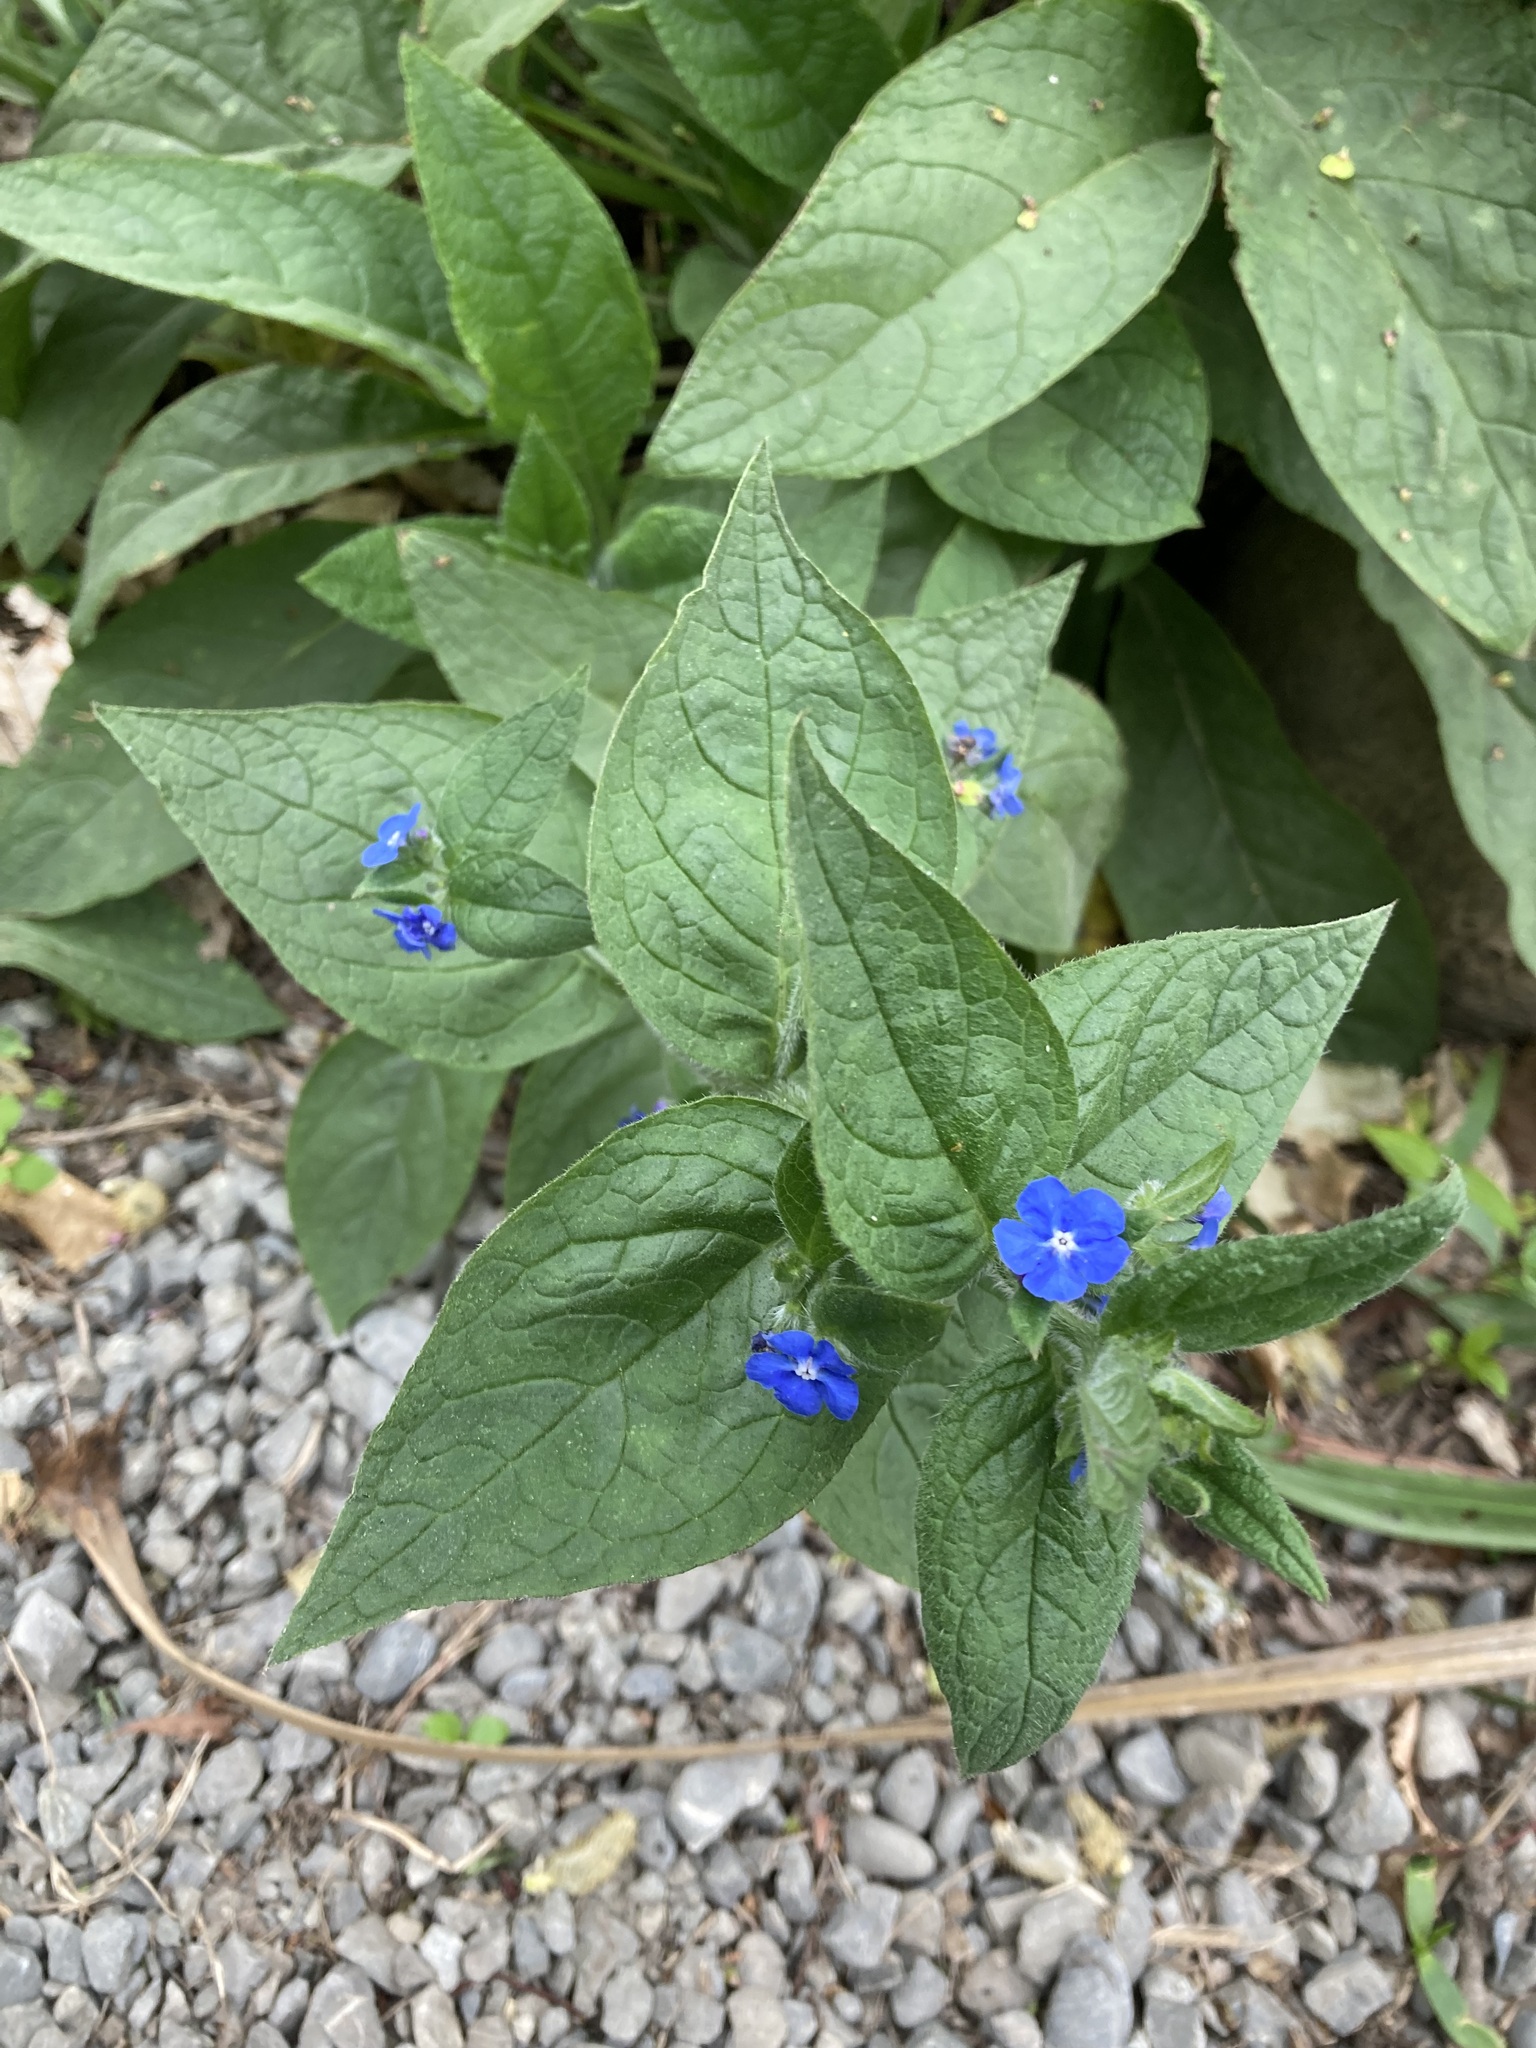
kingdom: Plantae
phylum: Tracheophyta
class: Magnoliopsida
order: Boraginales
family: Boraginaceae
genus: Pentaglottis
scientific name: Pentaglottis sempervirens
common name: Green alkanet
